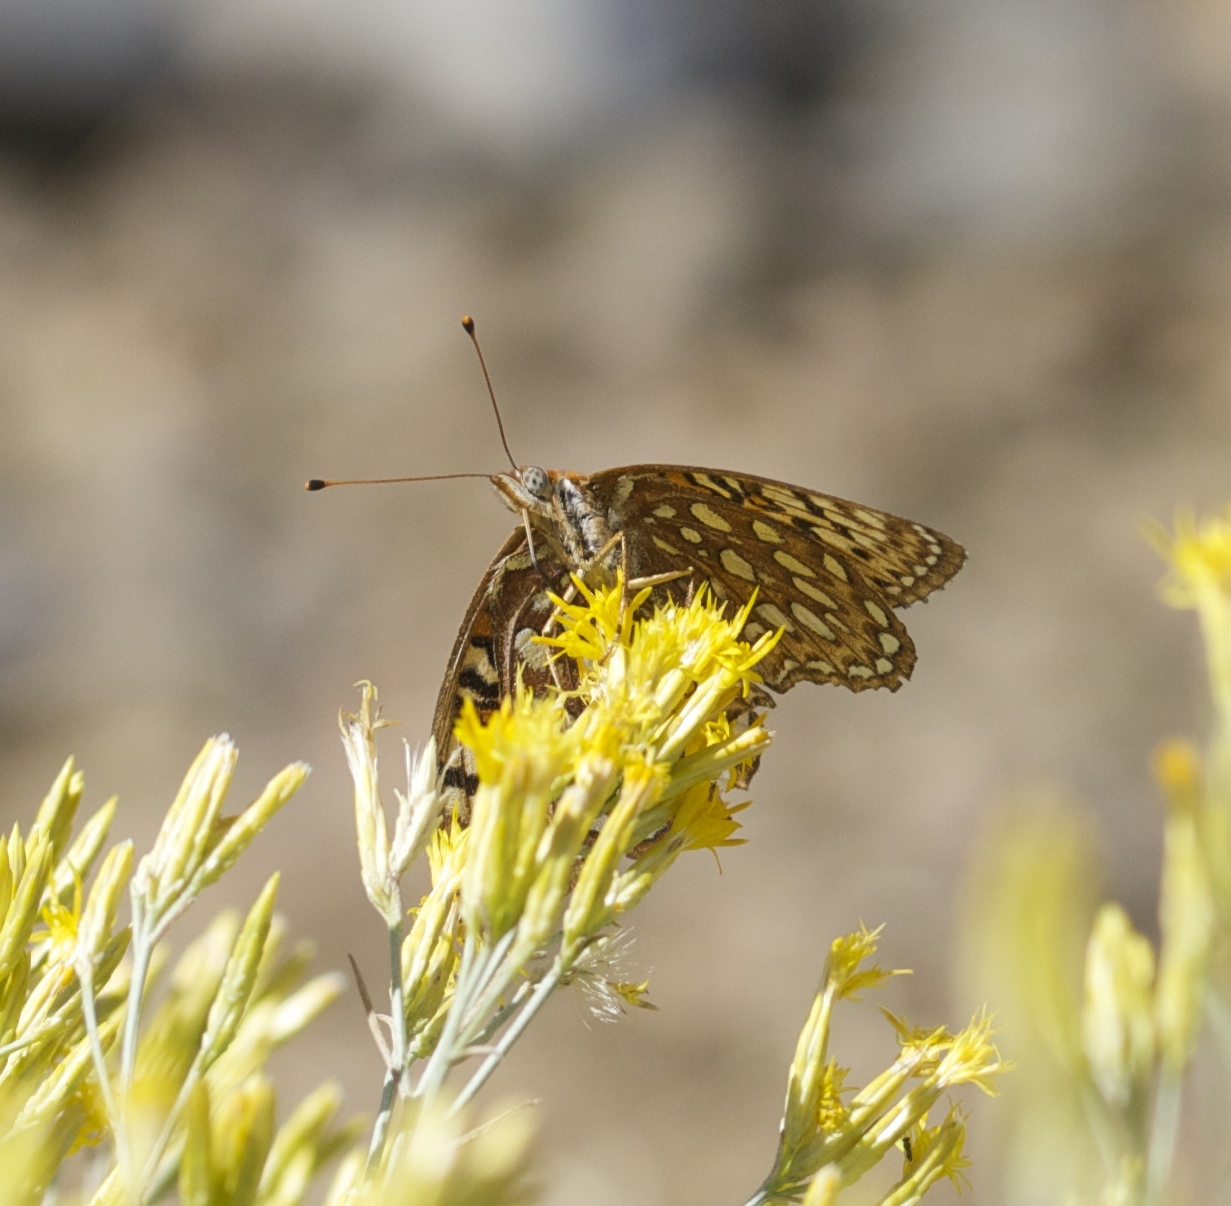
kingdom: Animalia
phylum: Arthropoda
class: Insecta
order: Lepidoptera
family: Nymphalidae
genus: Argynnis
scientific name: Argynnis coronis
